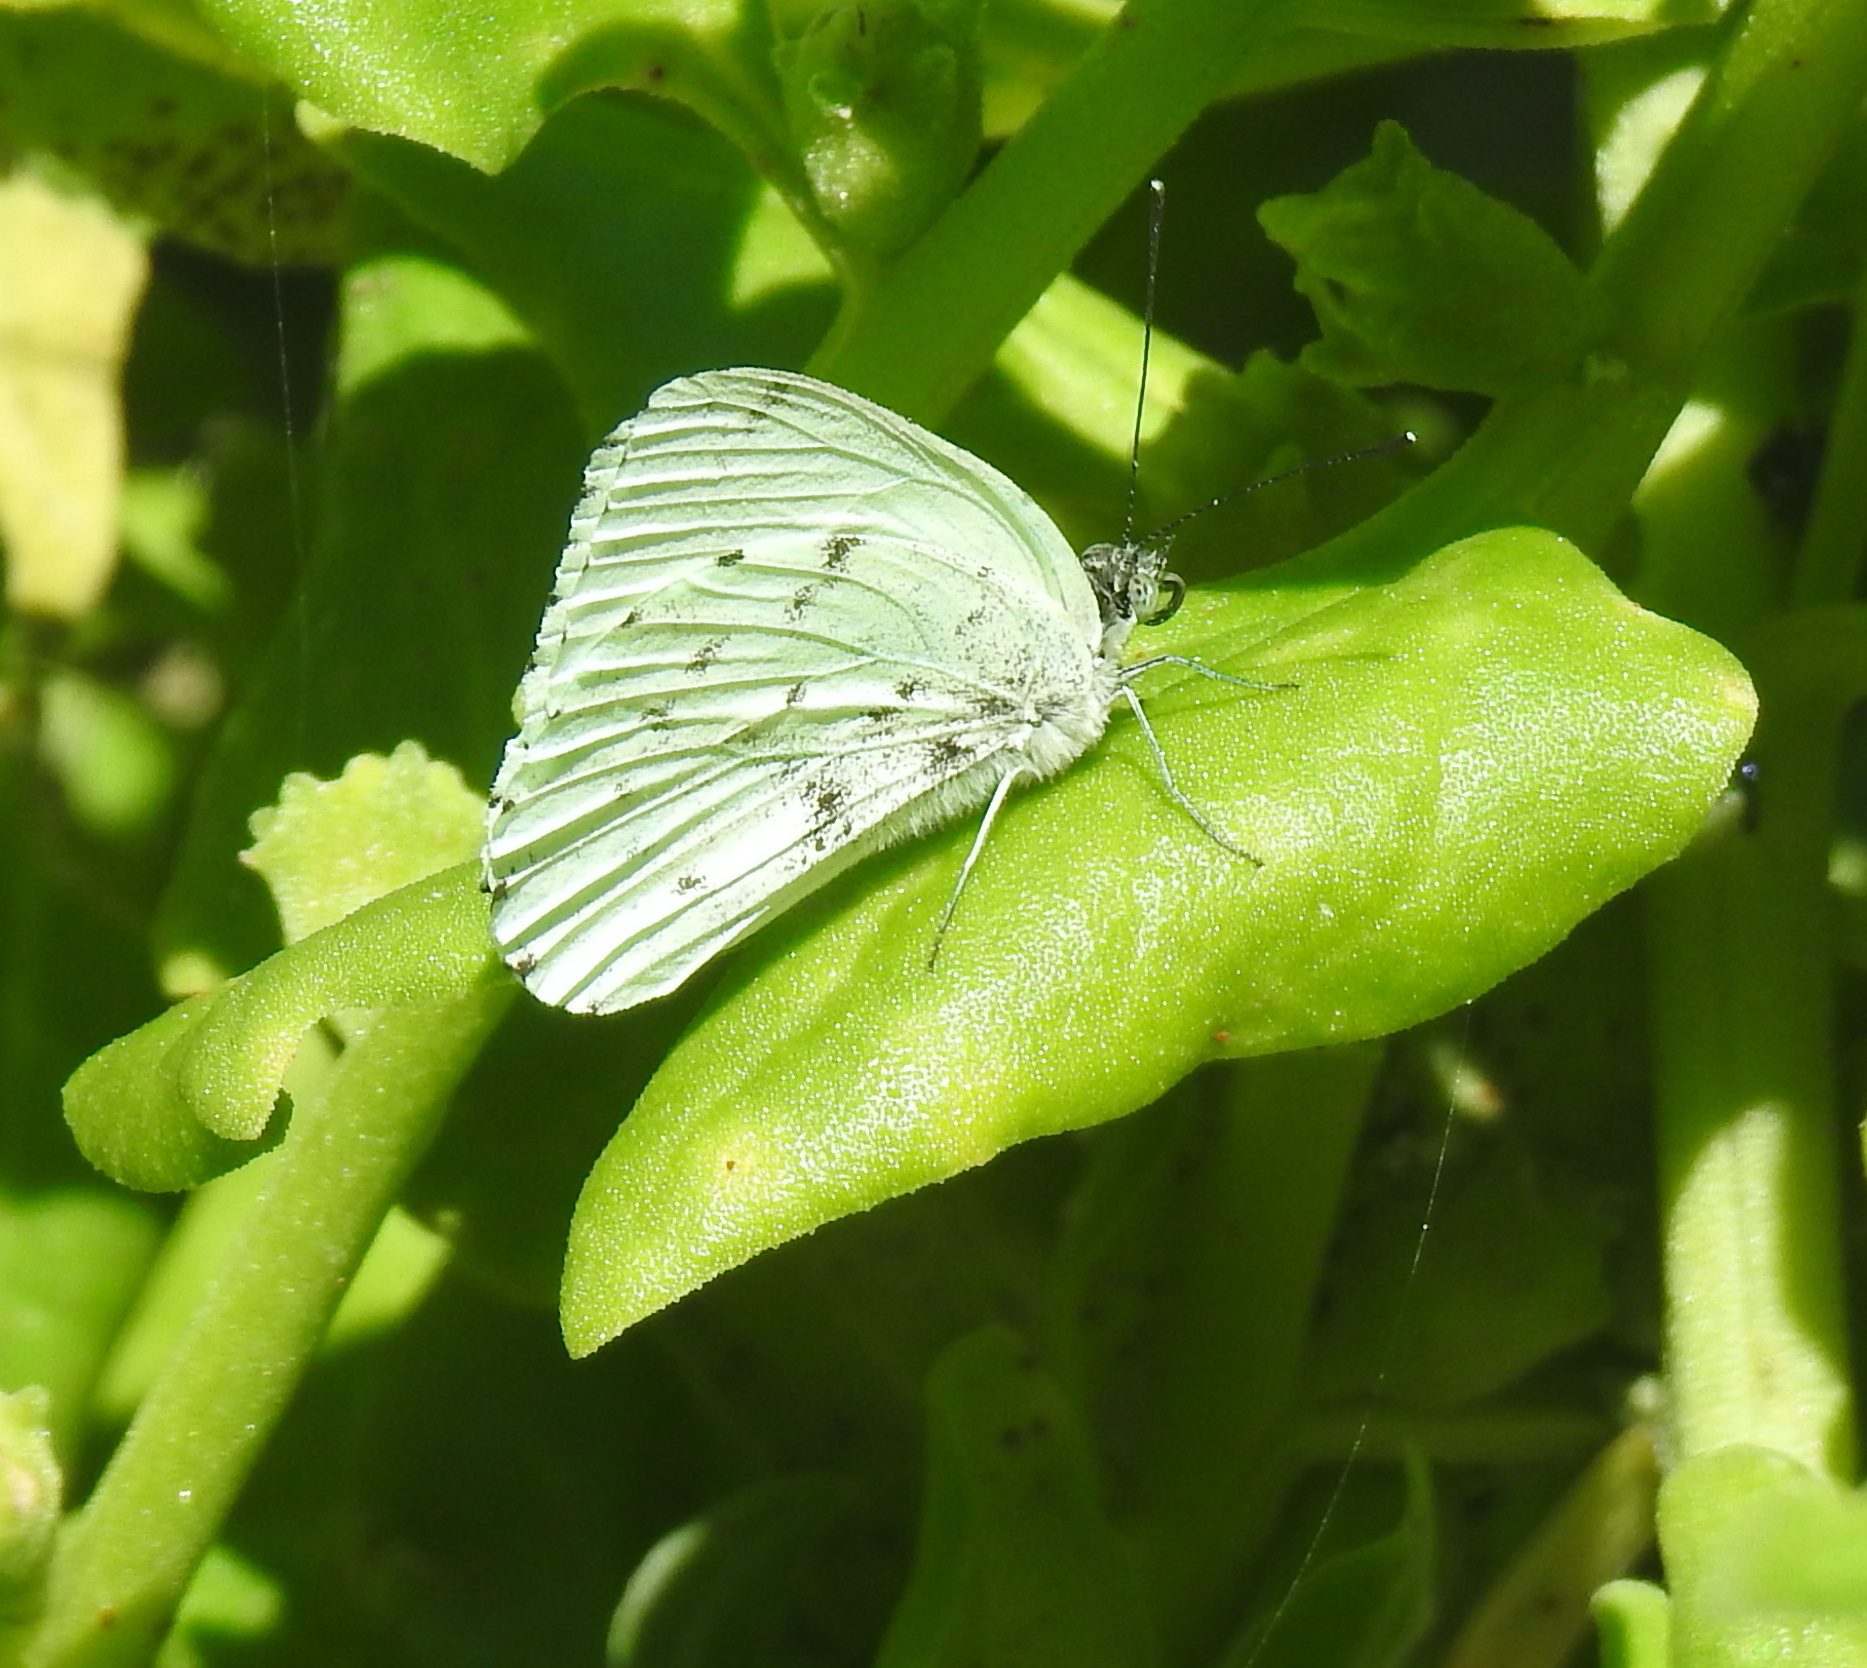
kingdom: Animalia
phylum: Arthropoda
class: Insecta
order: Lepidoptera
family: Pieridae
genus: Dixeia
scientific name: Dixeia charina
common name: African small white
